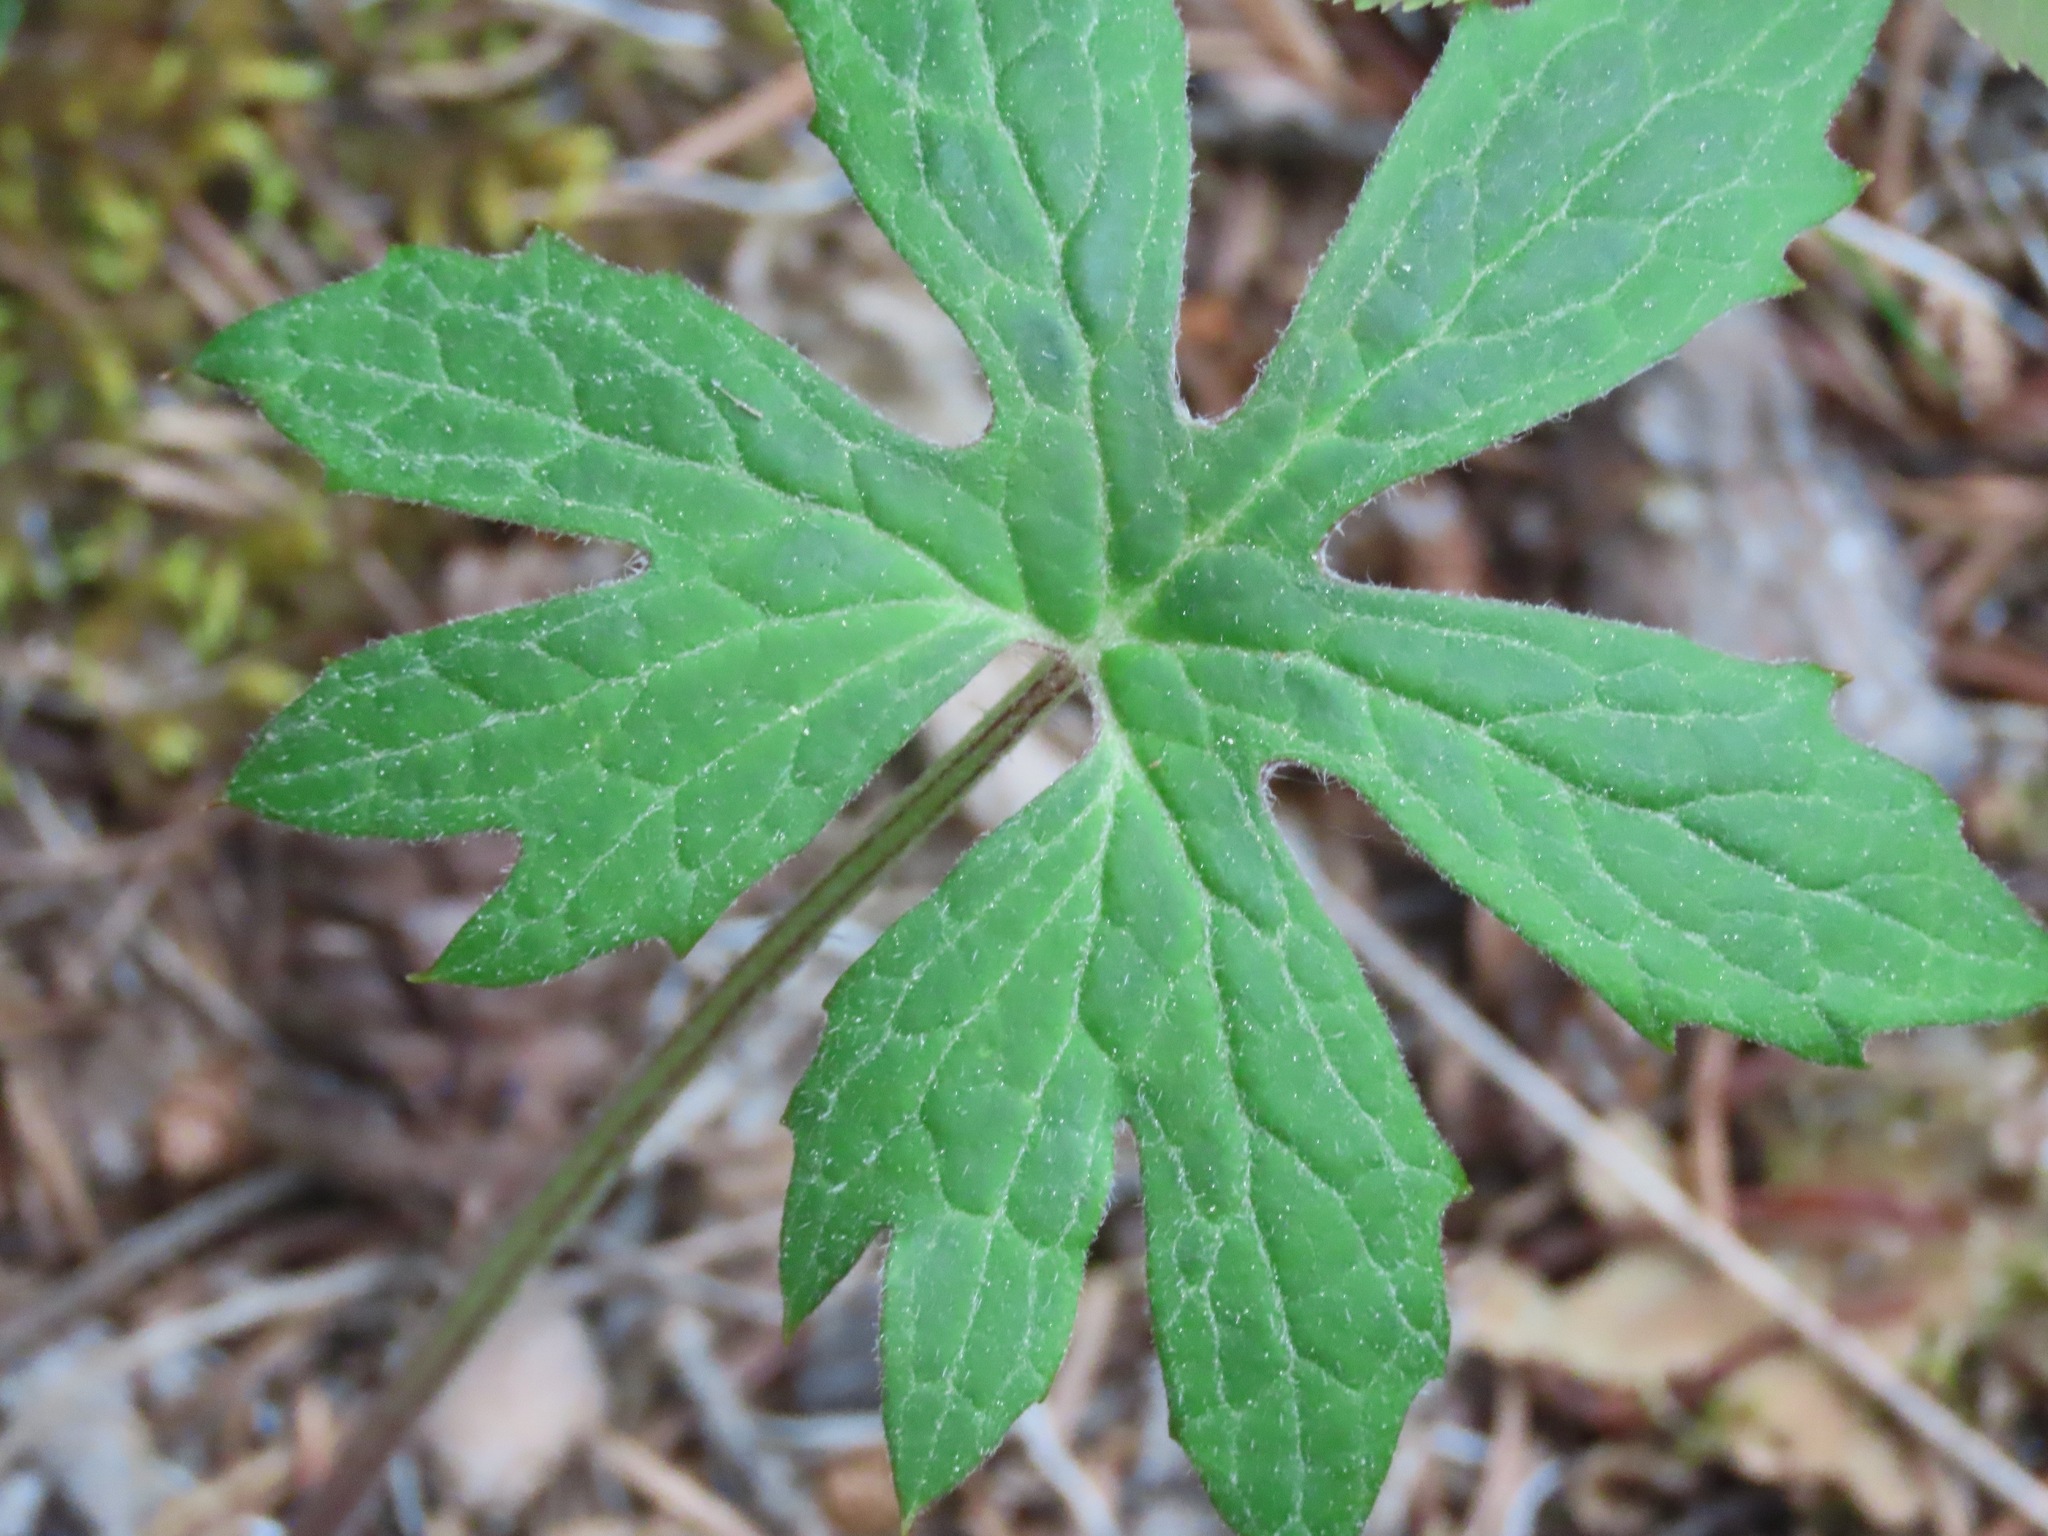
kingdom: Plantae
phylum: Tracheophyta
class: Magnoliopsida
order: Asterales
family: Asteraceae
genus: Petasites
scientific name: Petasites frigidus
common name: Arctic butterbur
